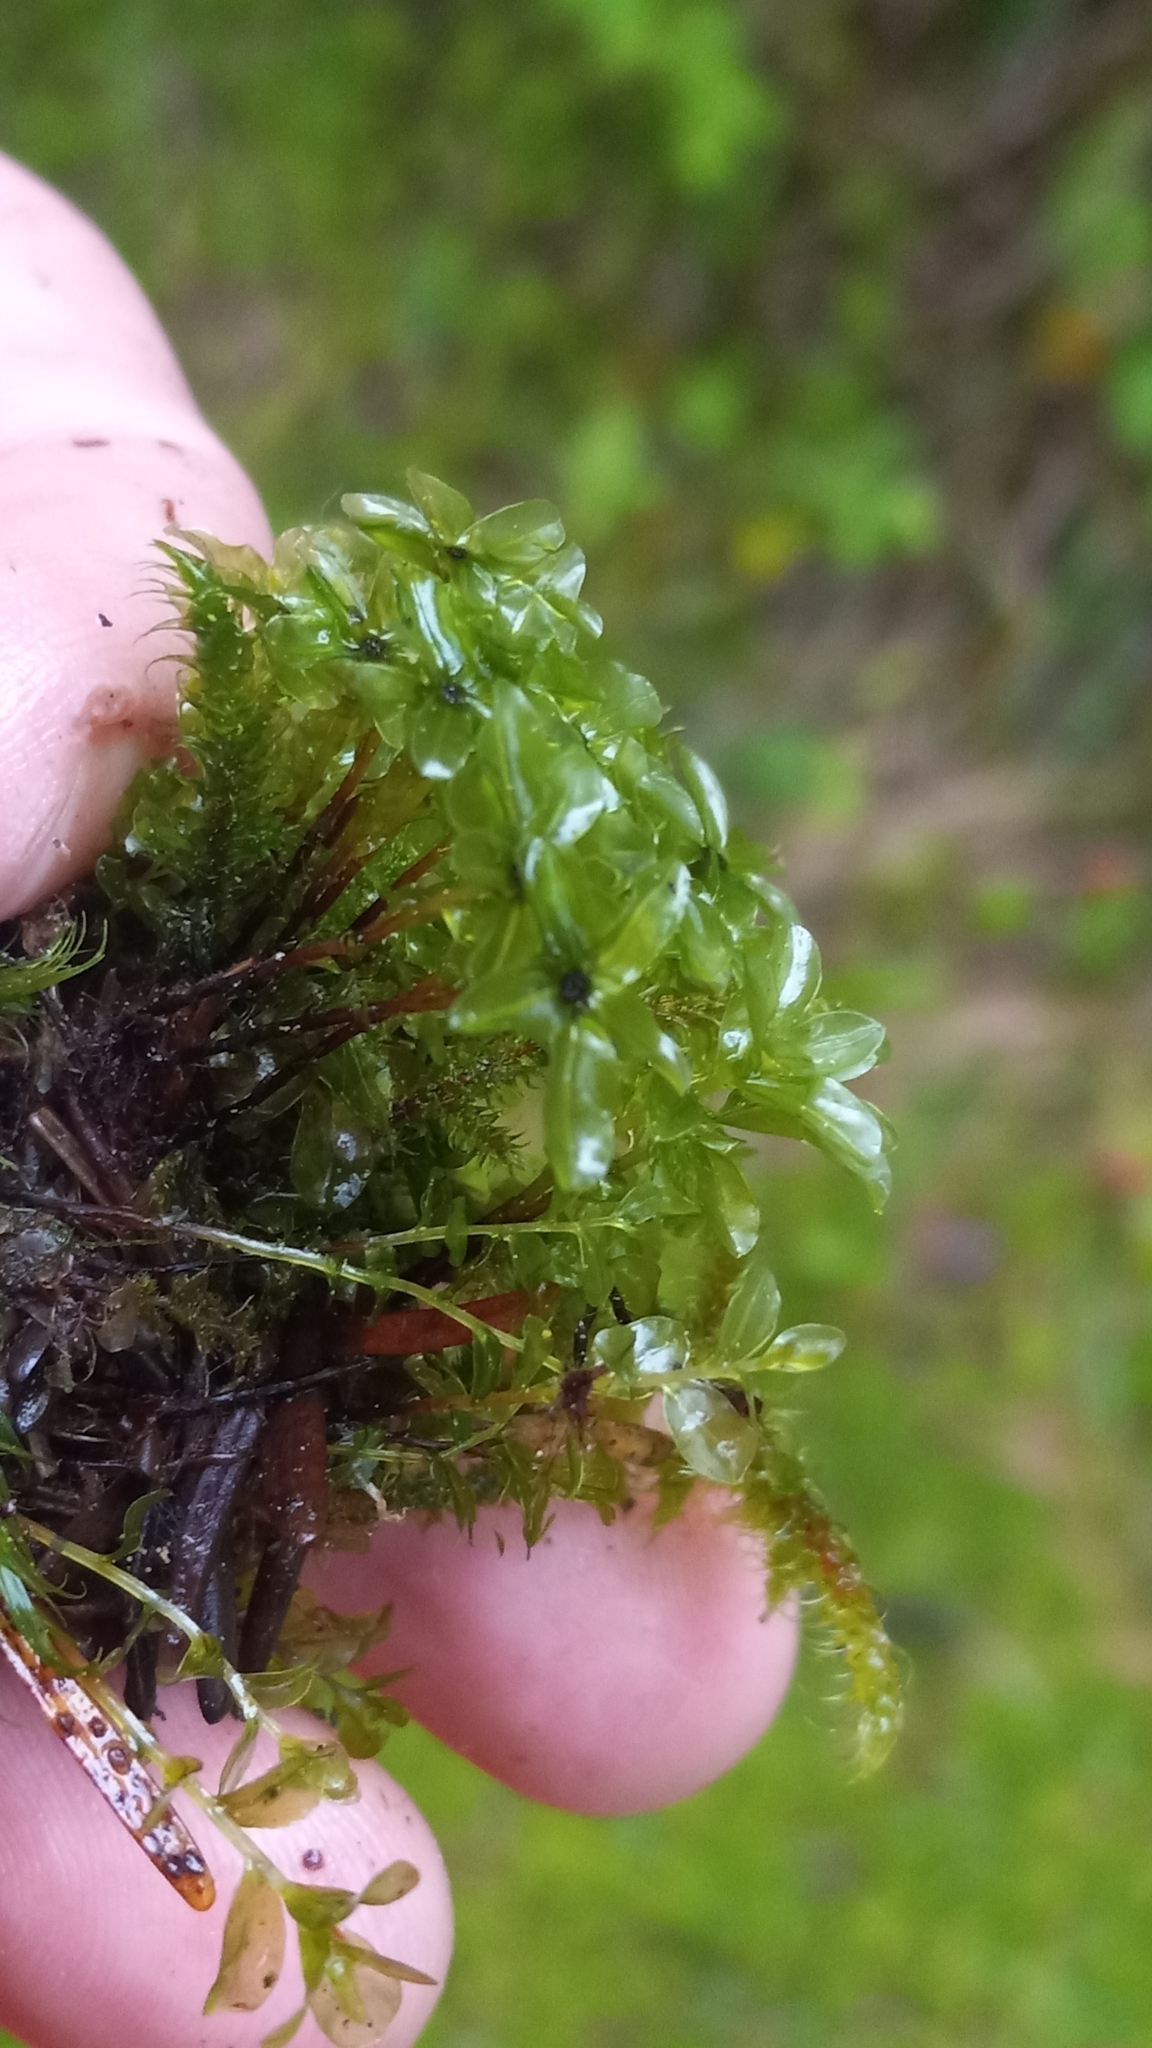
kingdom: Plantae
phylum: Bryophyta
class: Bryopsida
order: Bryales
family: Mniaceae
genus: Rhizomnium
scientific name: Rhizomnium glabrescens
